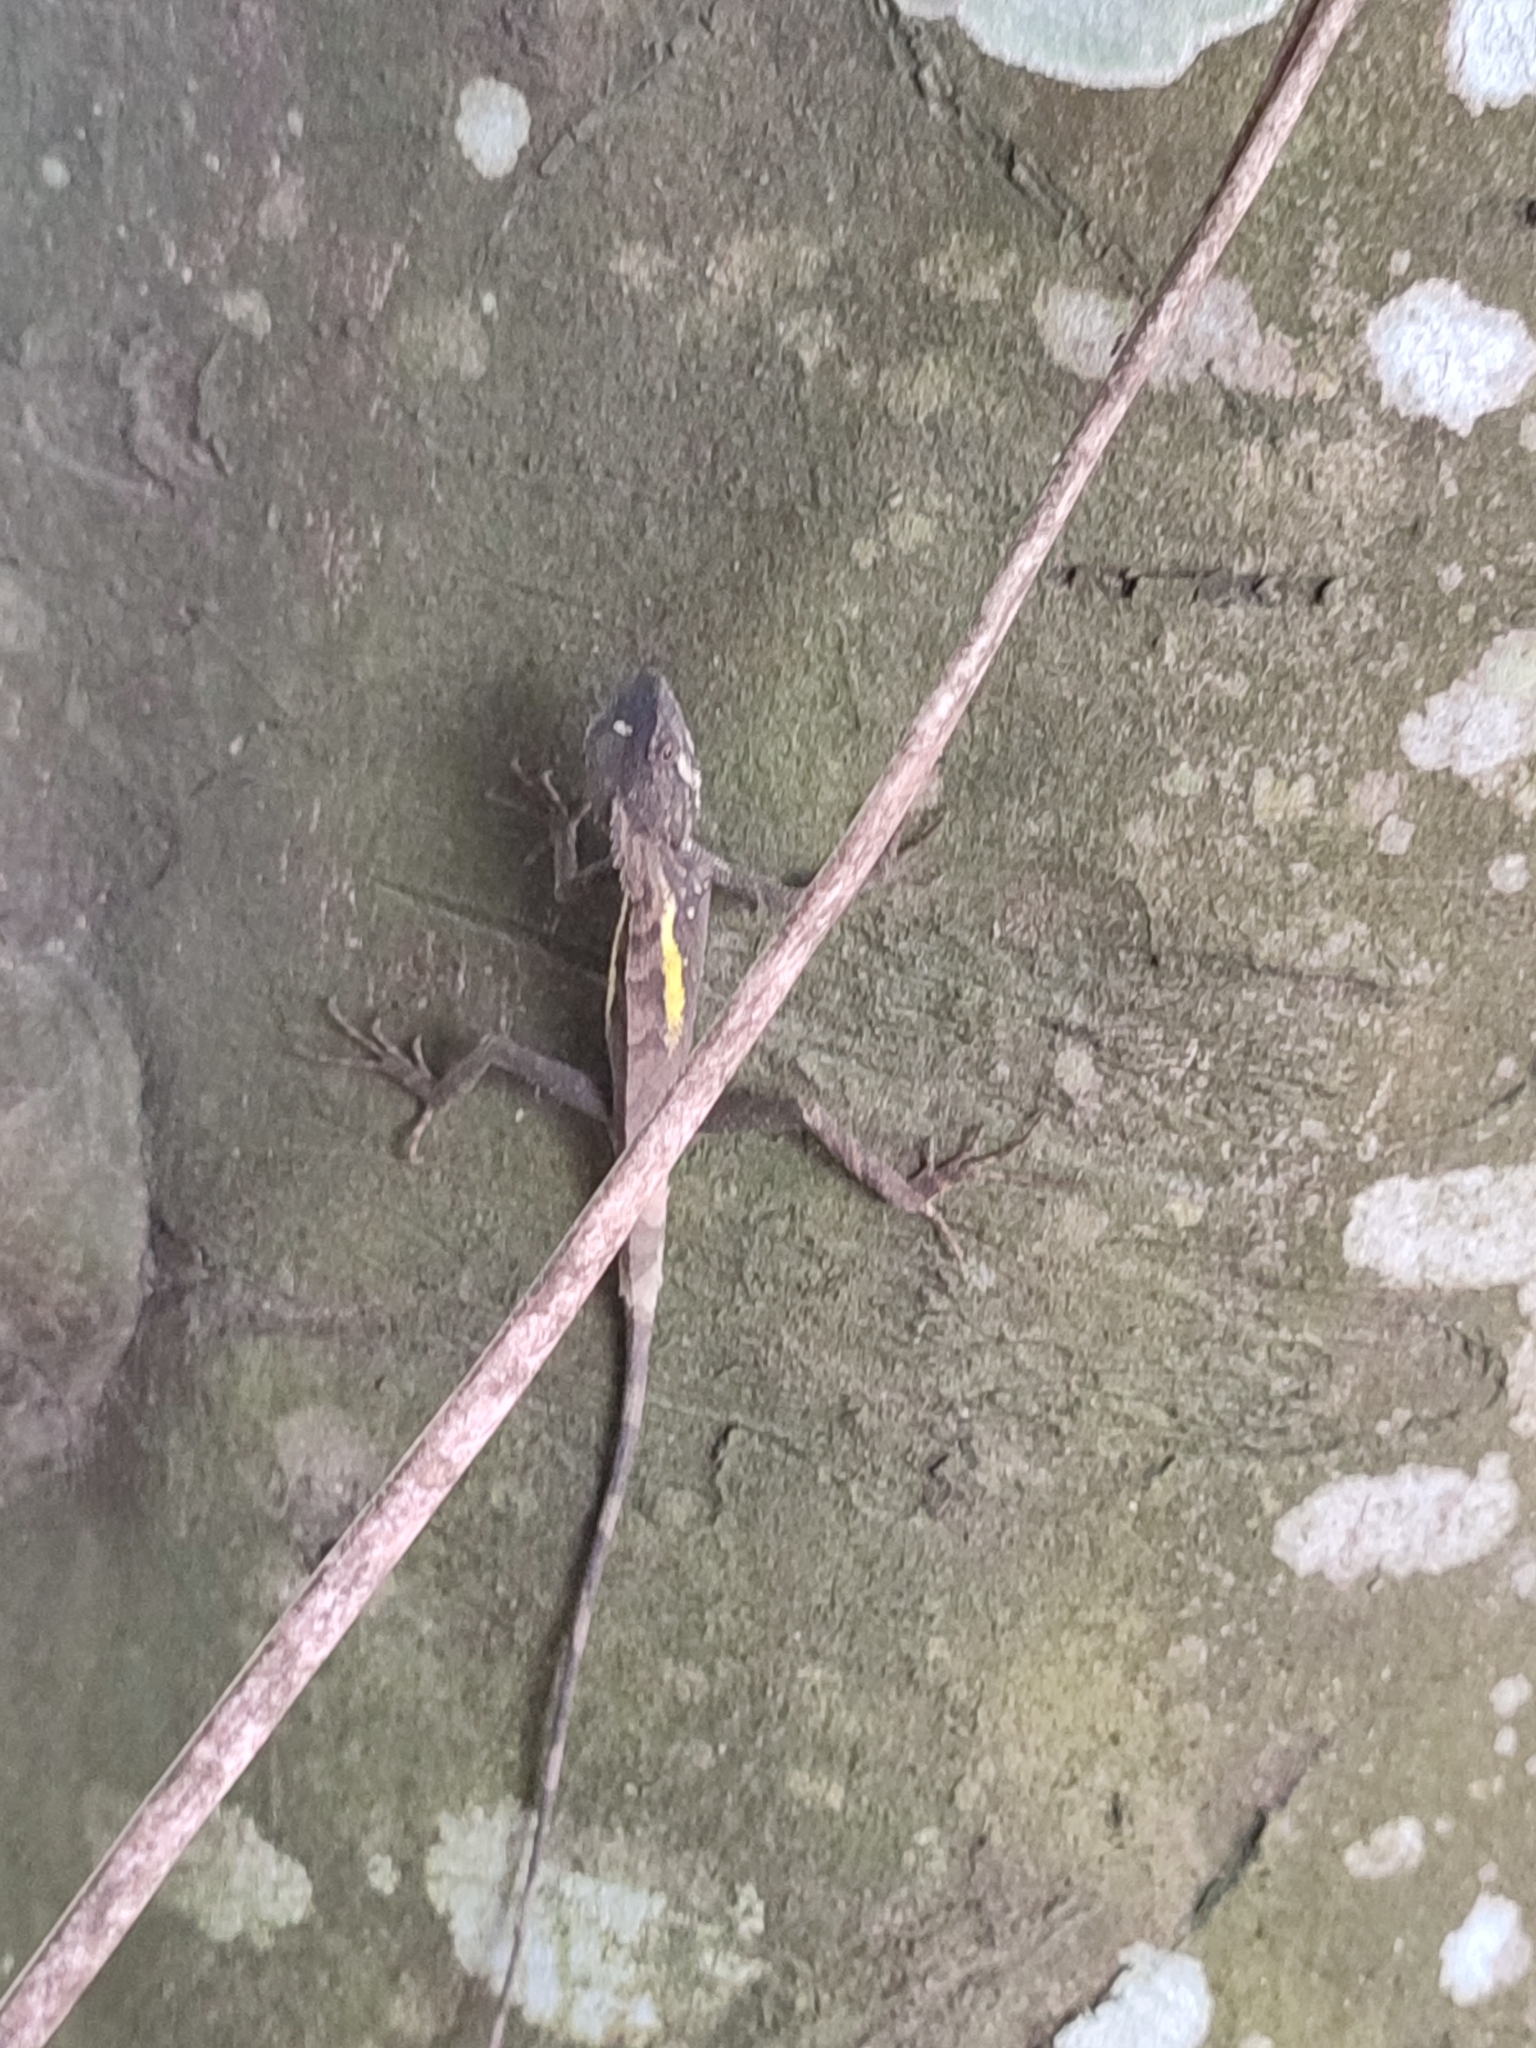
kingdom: Animalia
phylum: Chordata
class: Squamata
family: Agamidae
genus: Diploderma
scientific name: Diploderma swinhonis
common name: Taiwan japalure
